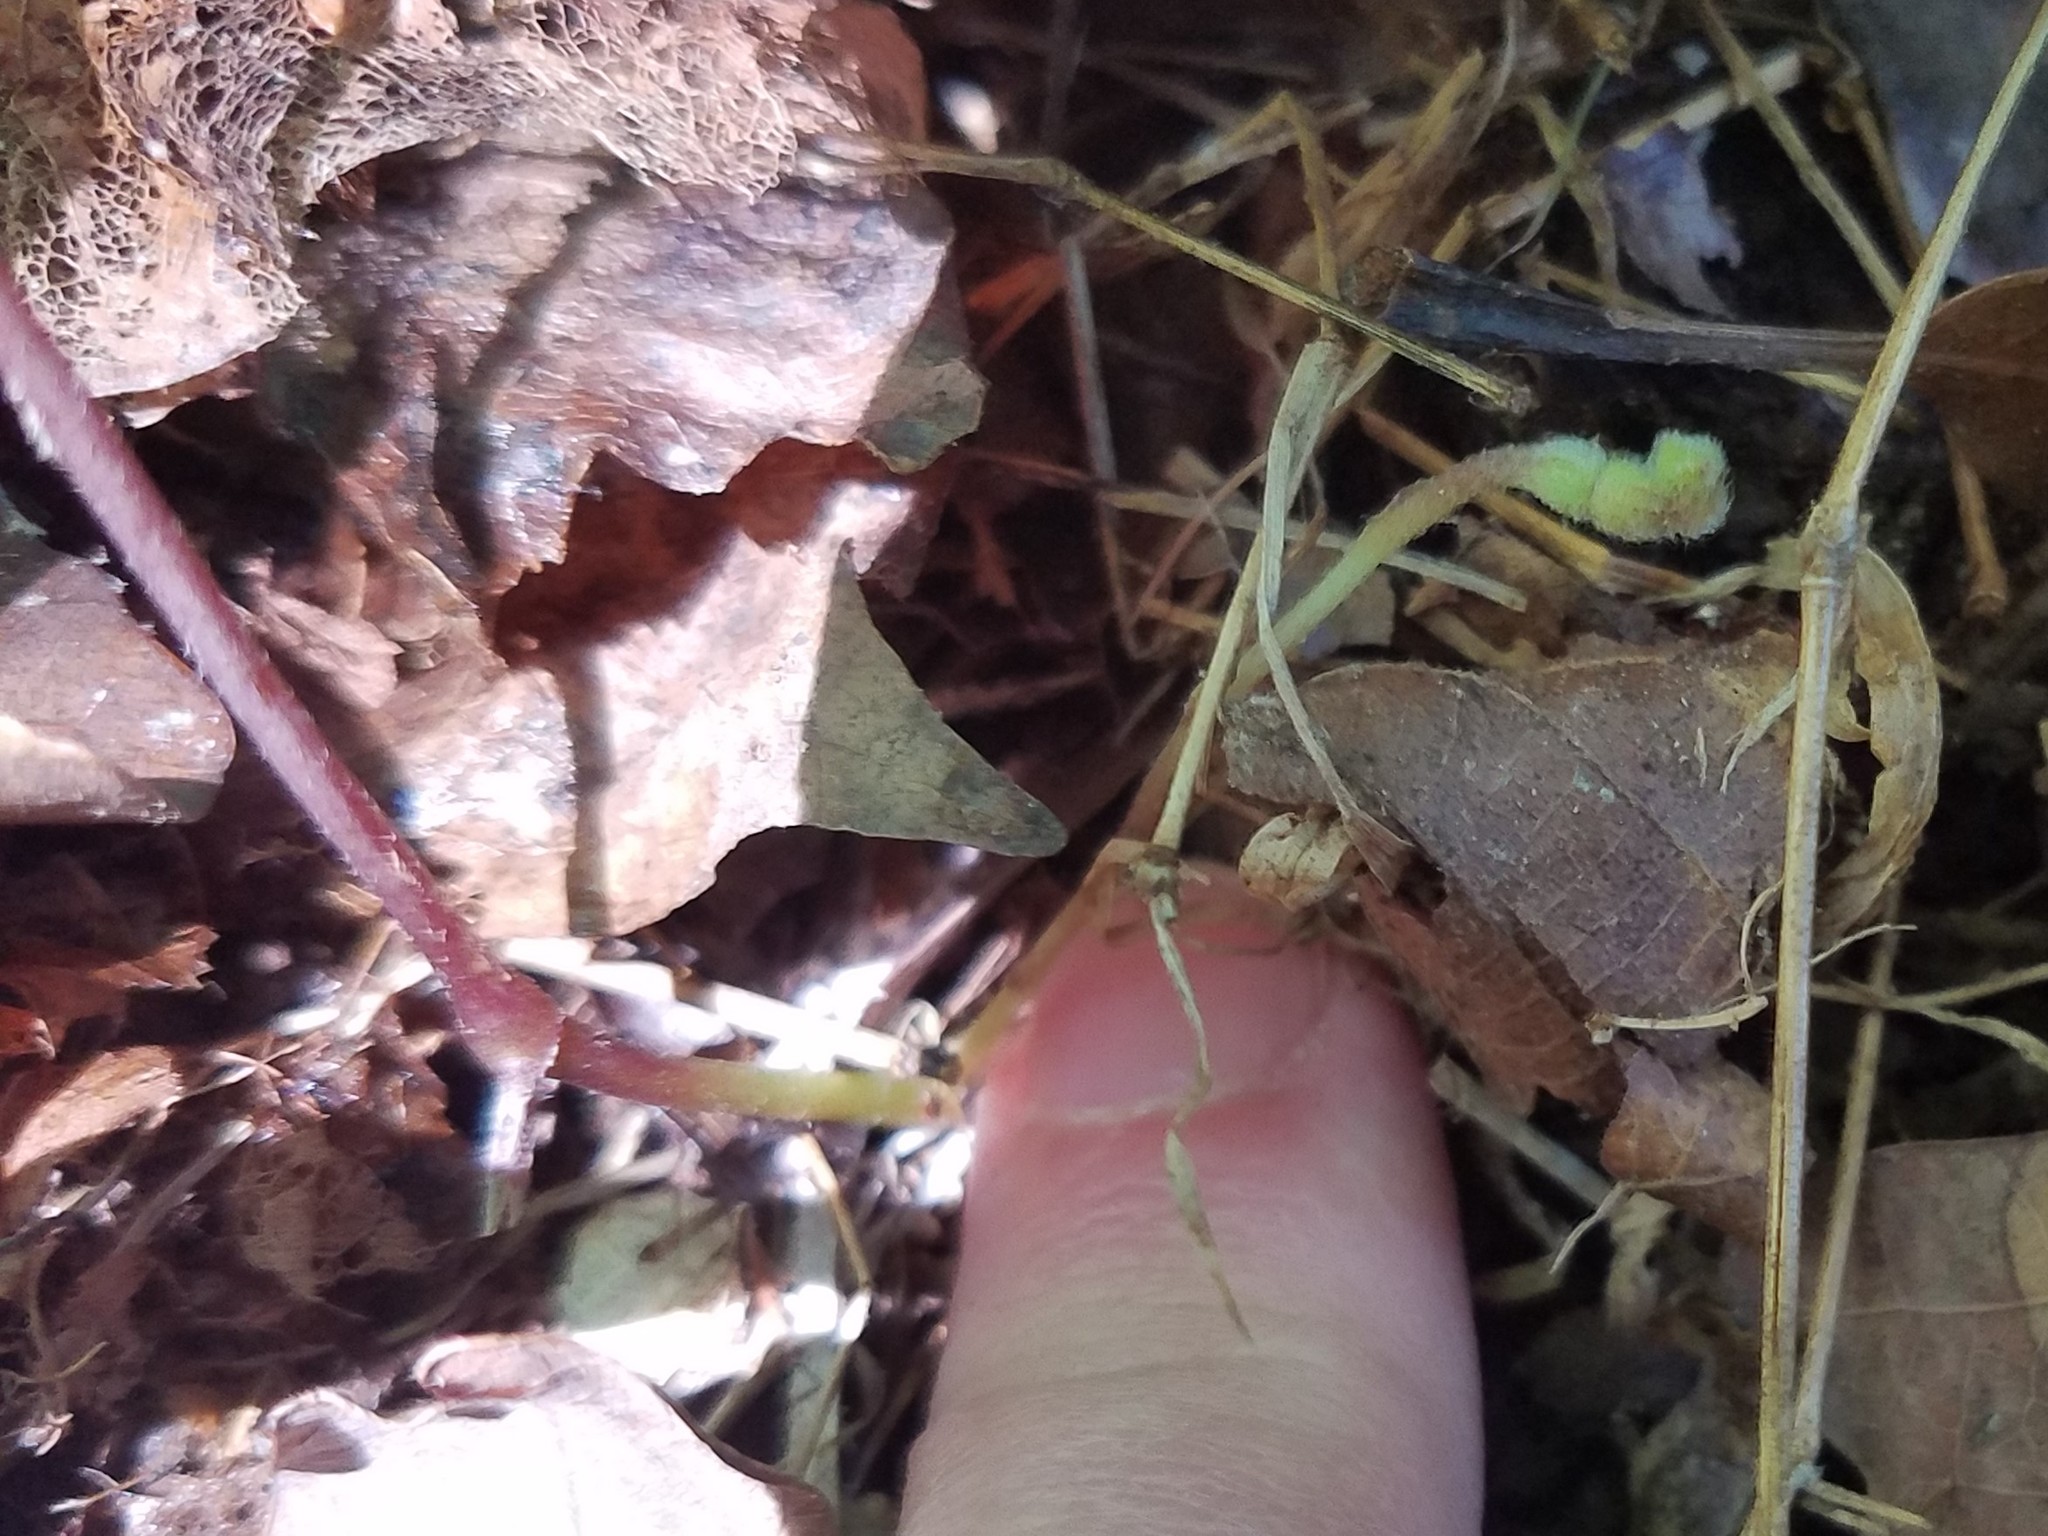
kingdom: Plantae
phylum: Tracheophyta
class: Magnoliopsida
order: Piperales
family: Aristolochiaceae
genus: Endodeca
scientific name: Endodeca serpentaria
